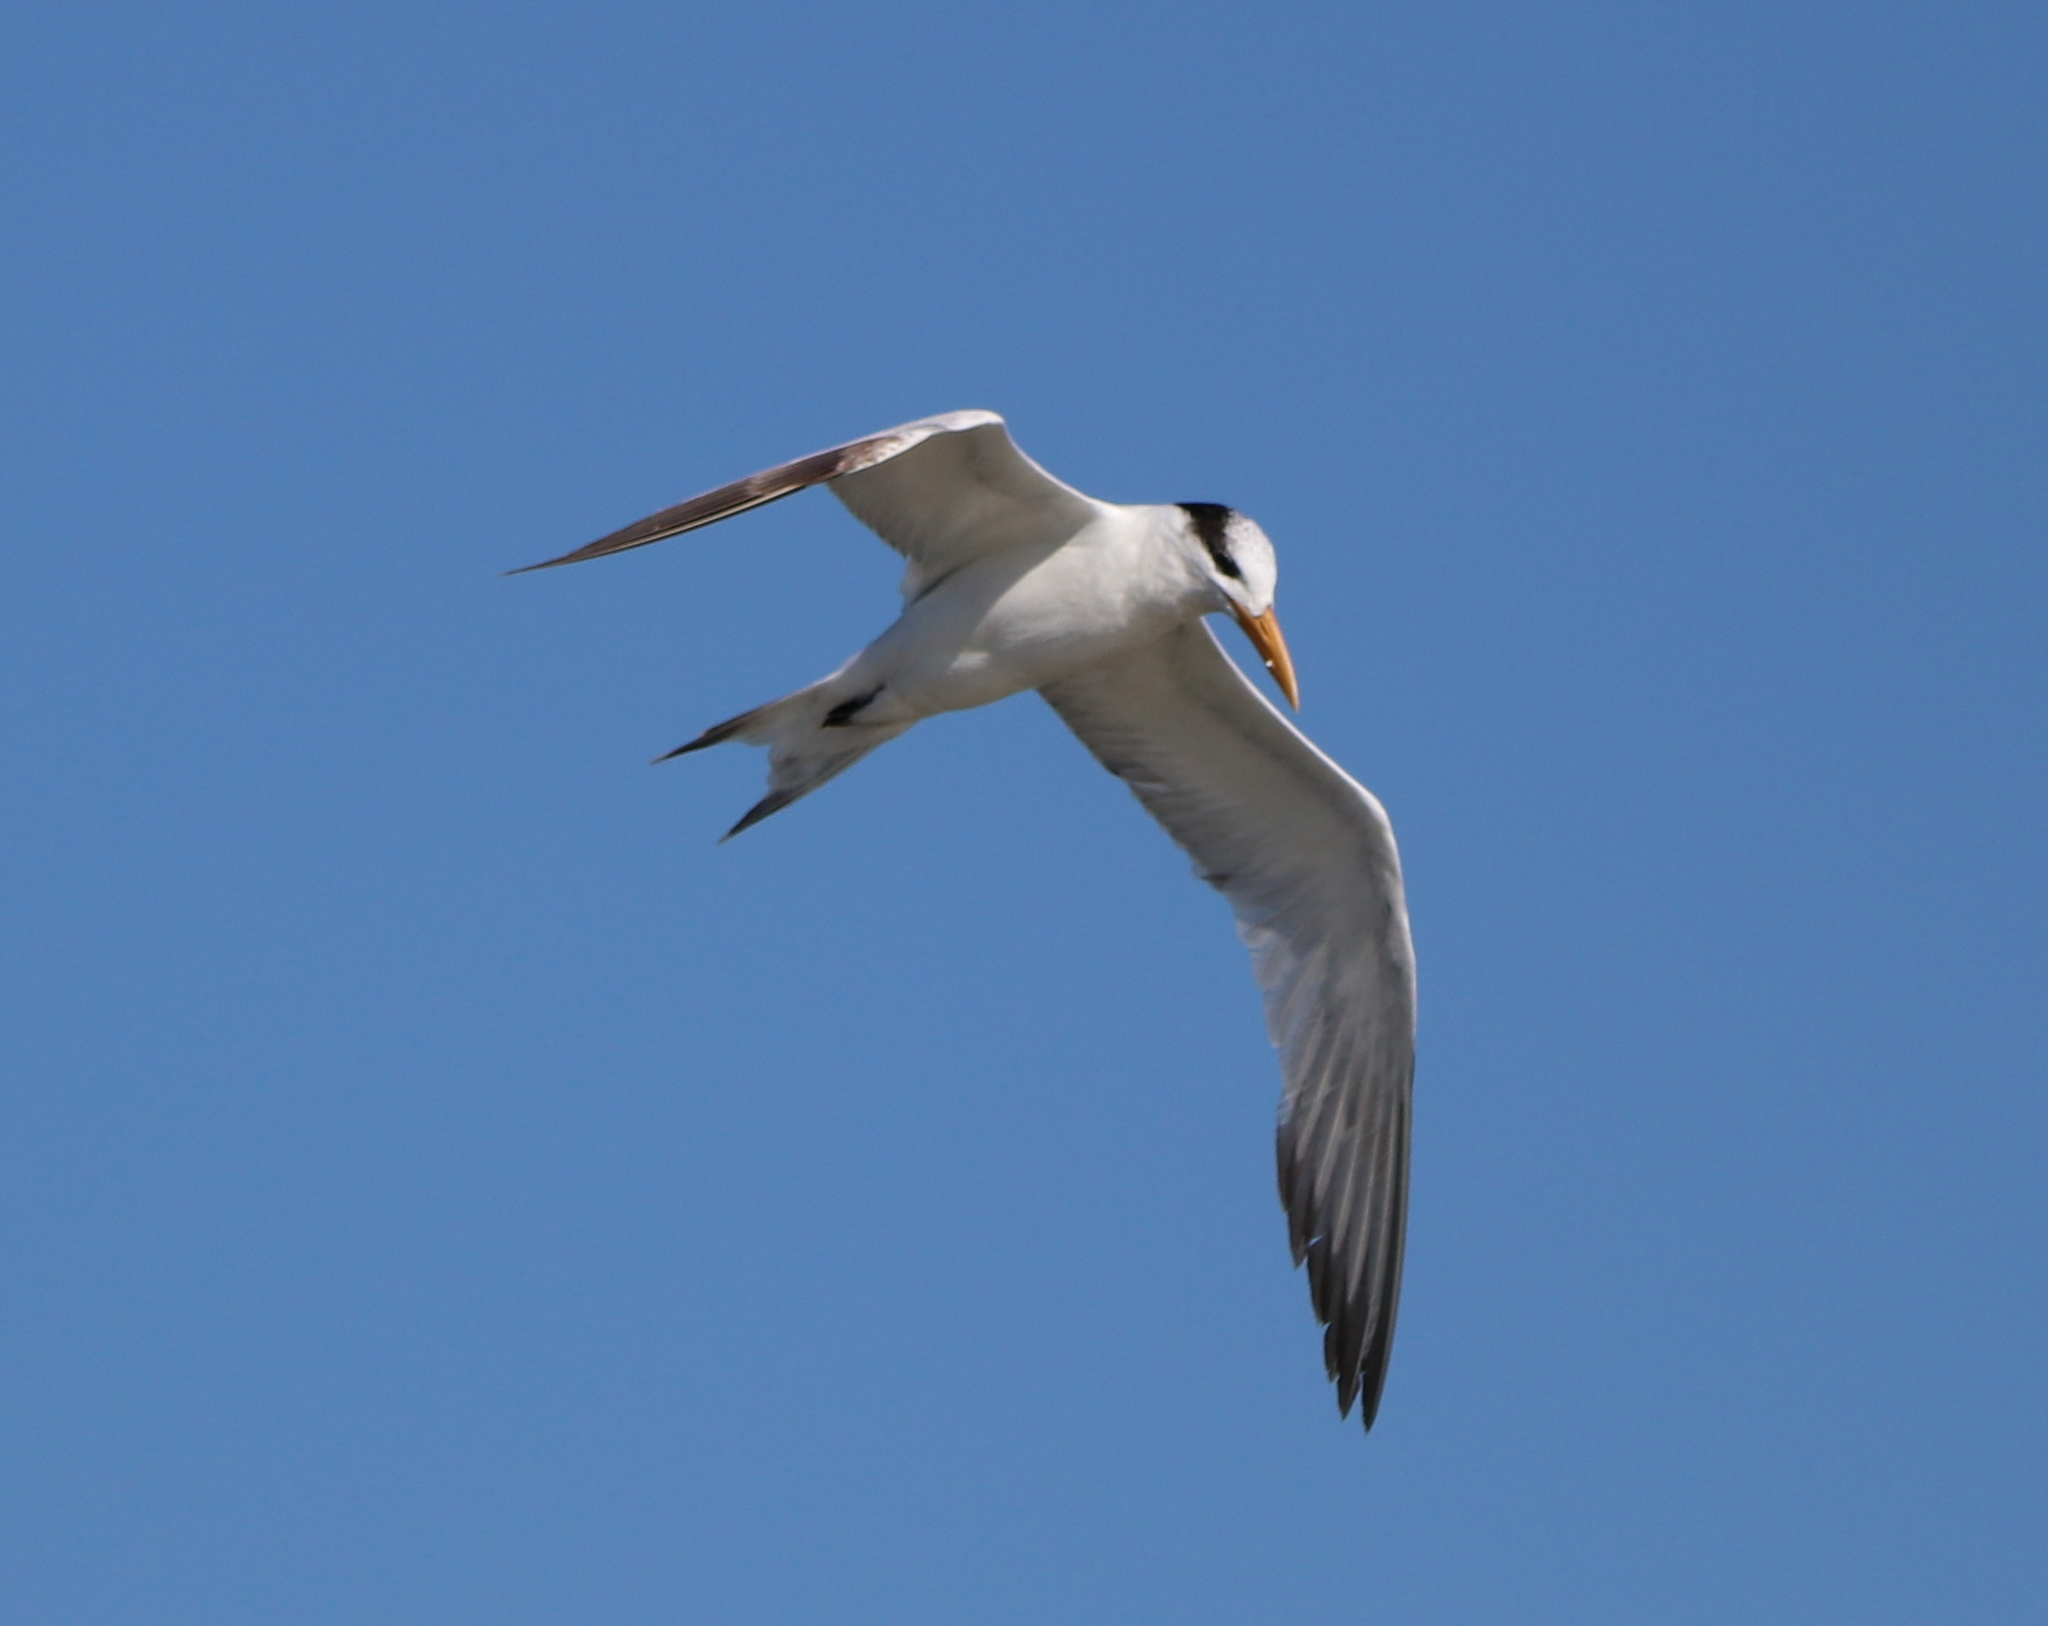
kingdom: Animalia
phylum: Chordata
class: Aves
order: Charadriiformes
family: Laridae
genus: Thalasseus
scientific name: Thalasseus maximus
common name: Royal tern
